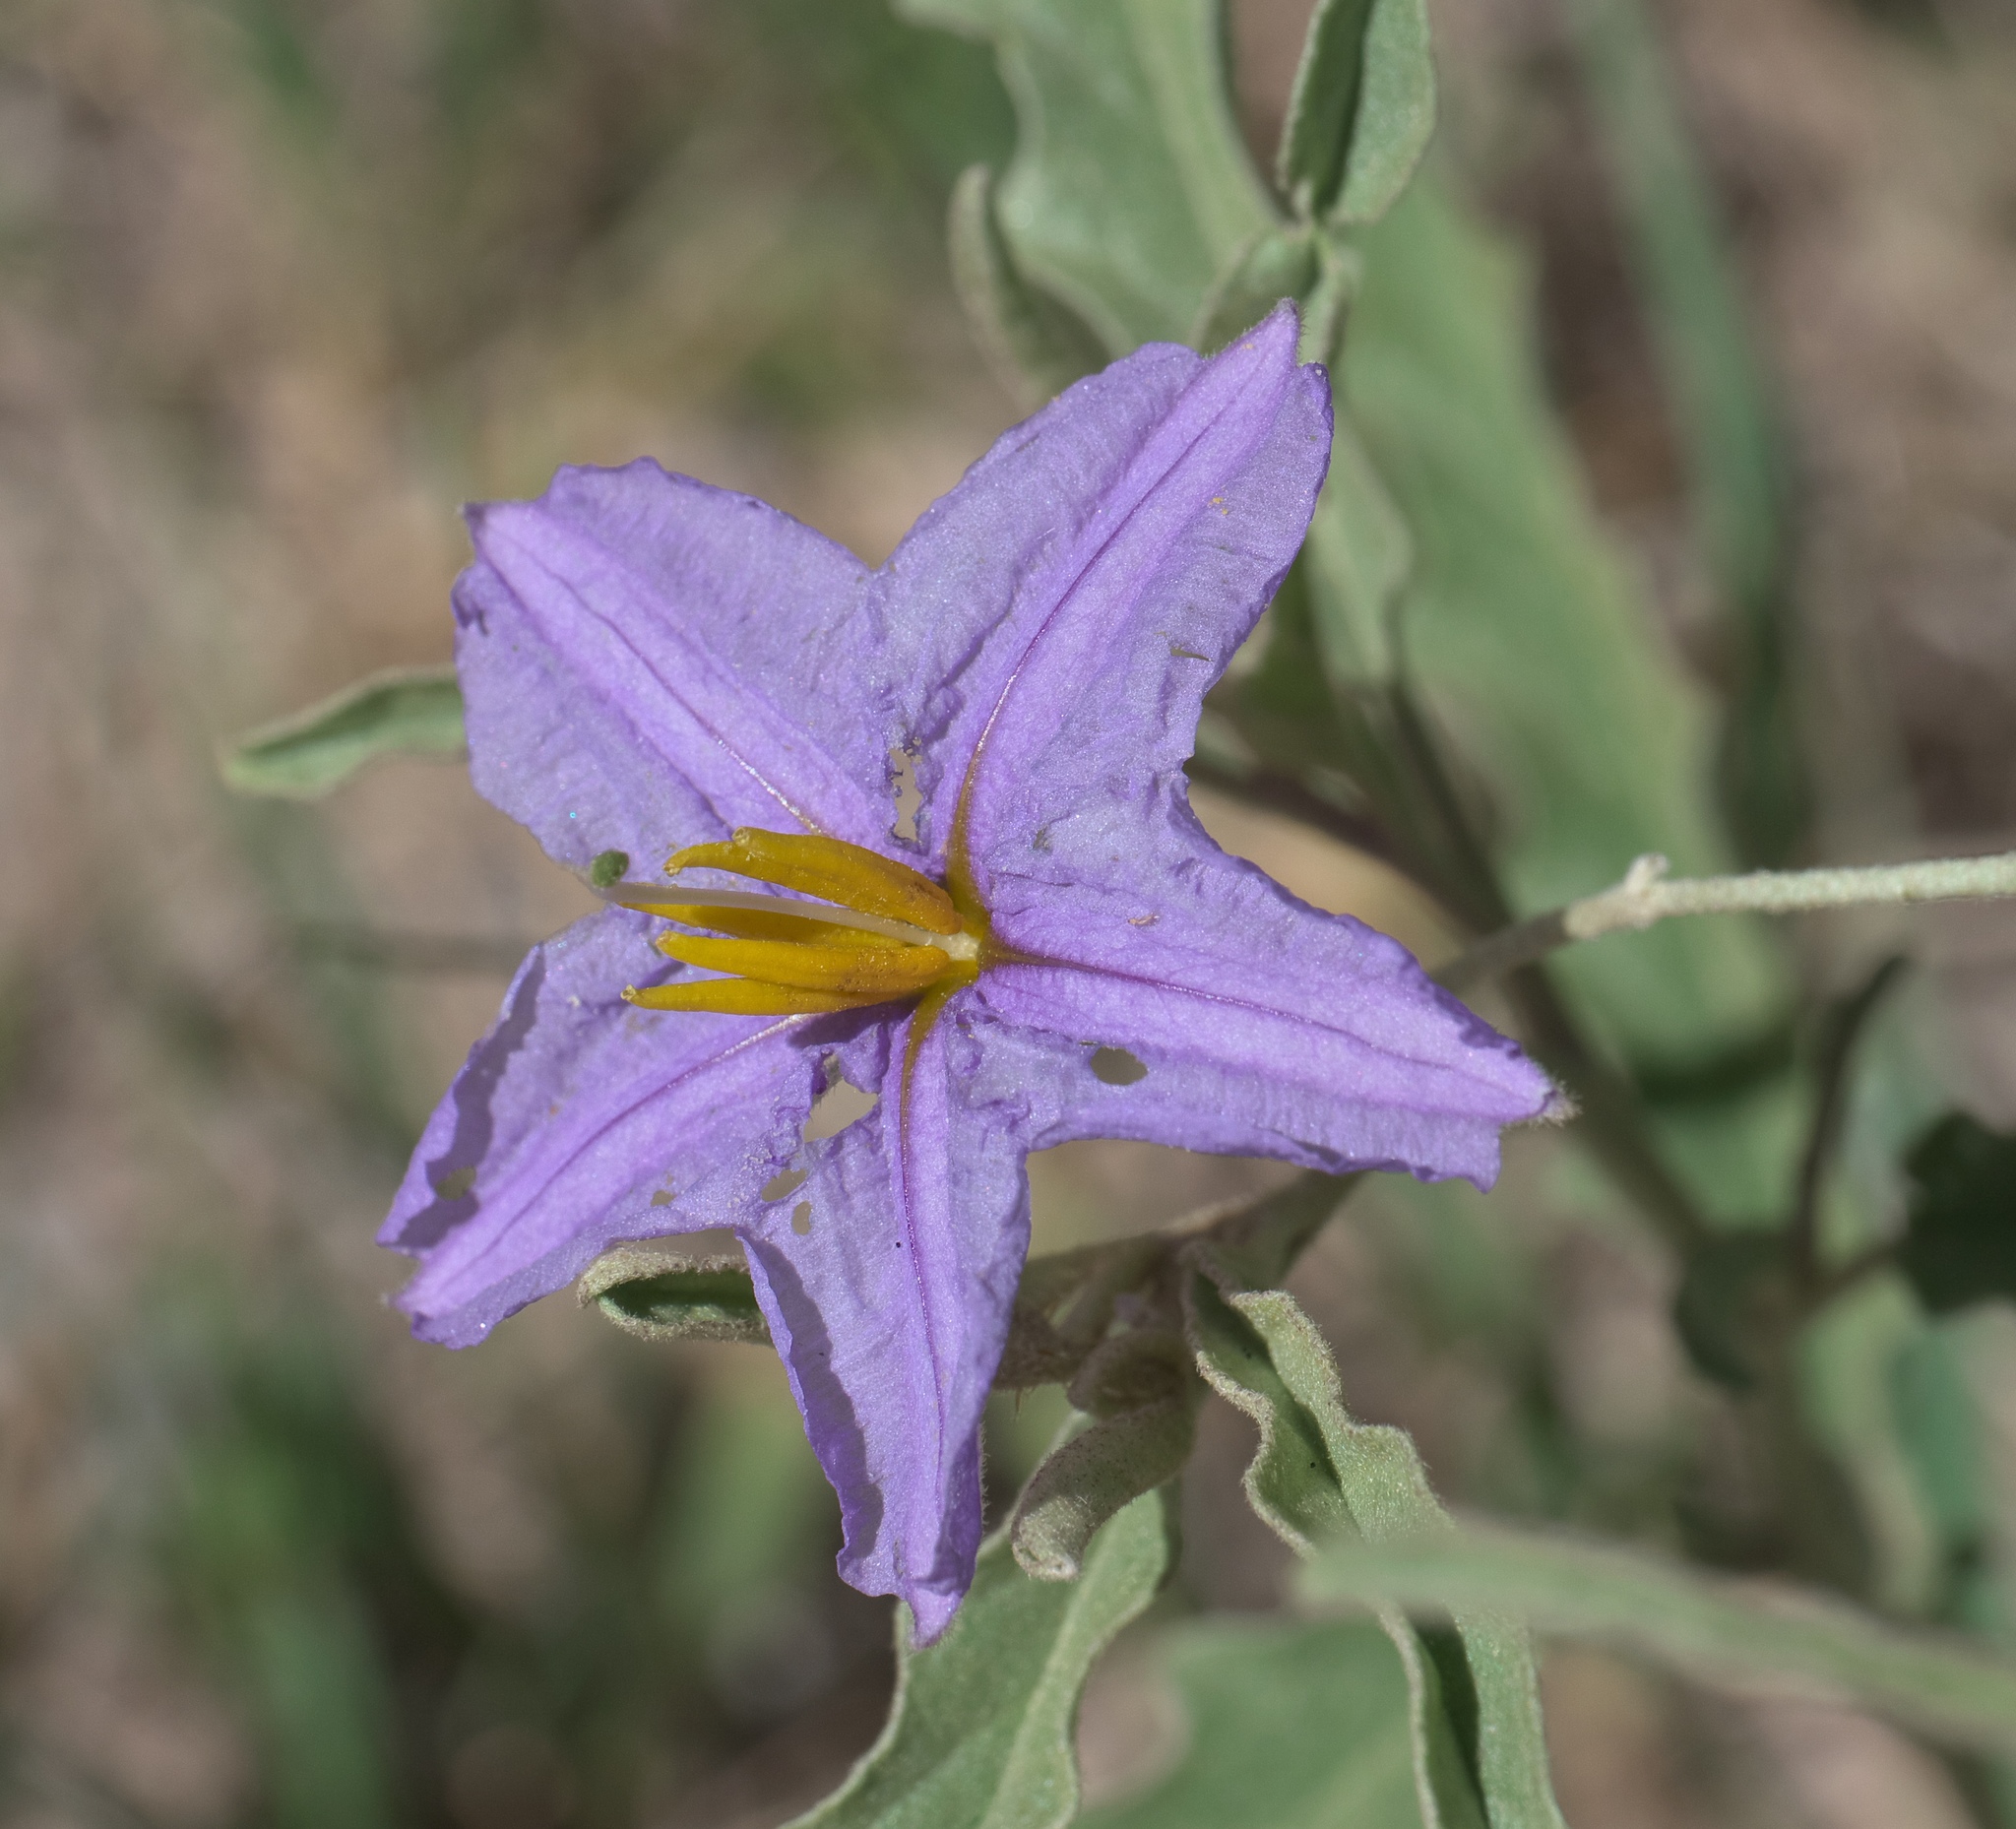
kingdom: Plantae
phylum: Tracheophyta
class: Magnoliopsida
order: Solanales
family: Solanaceae
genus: Solanum
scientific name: Solanum elaeagnifolium
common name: Silverleaf nightshade
